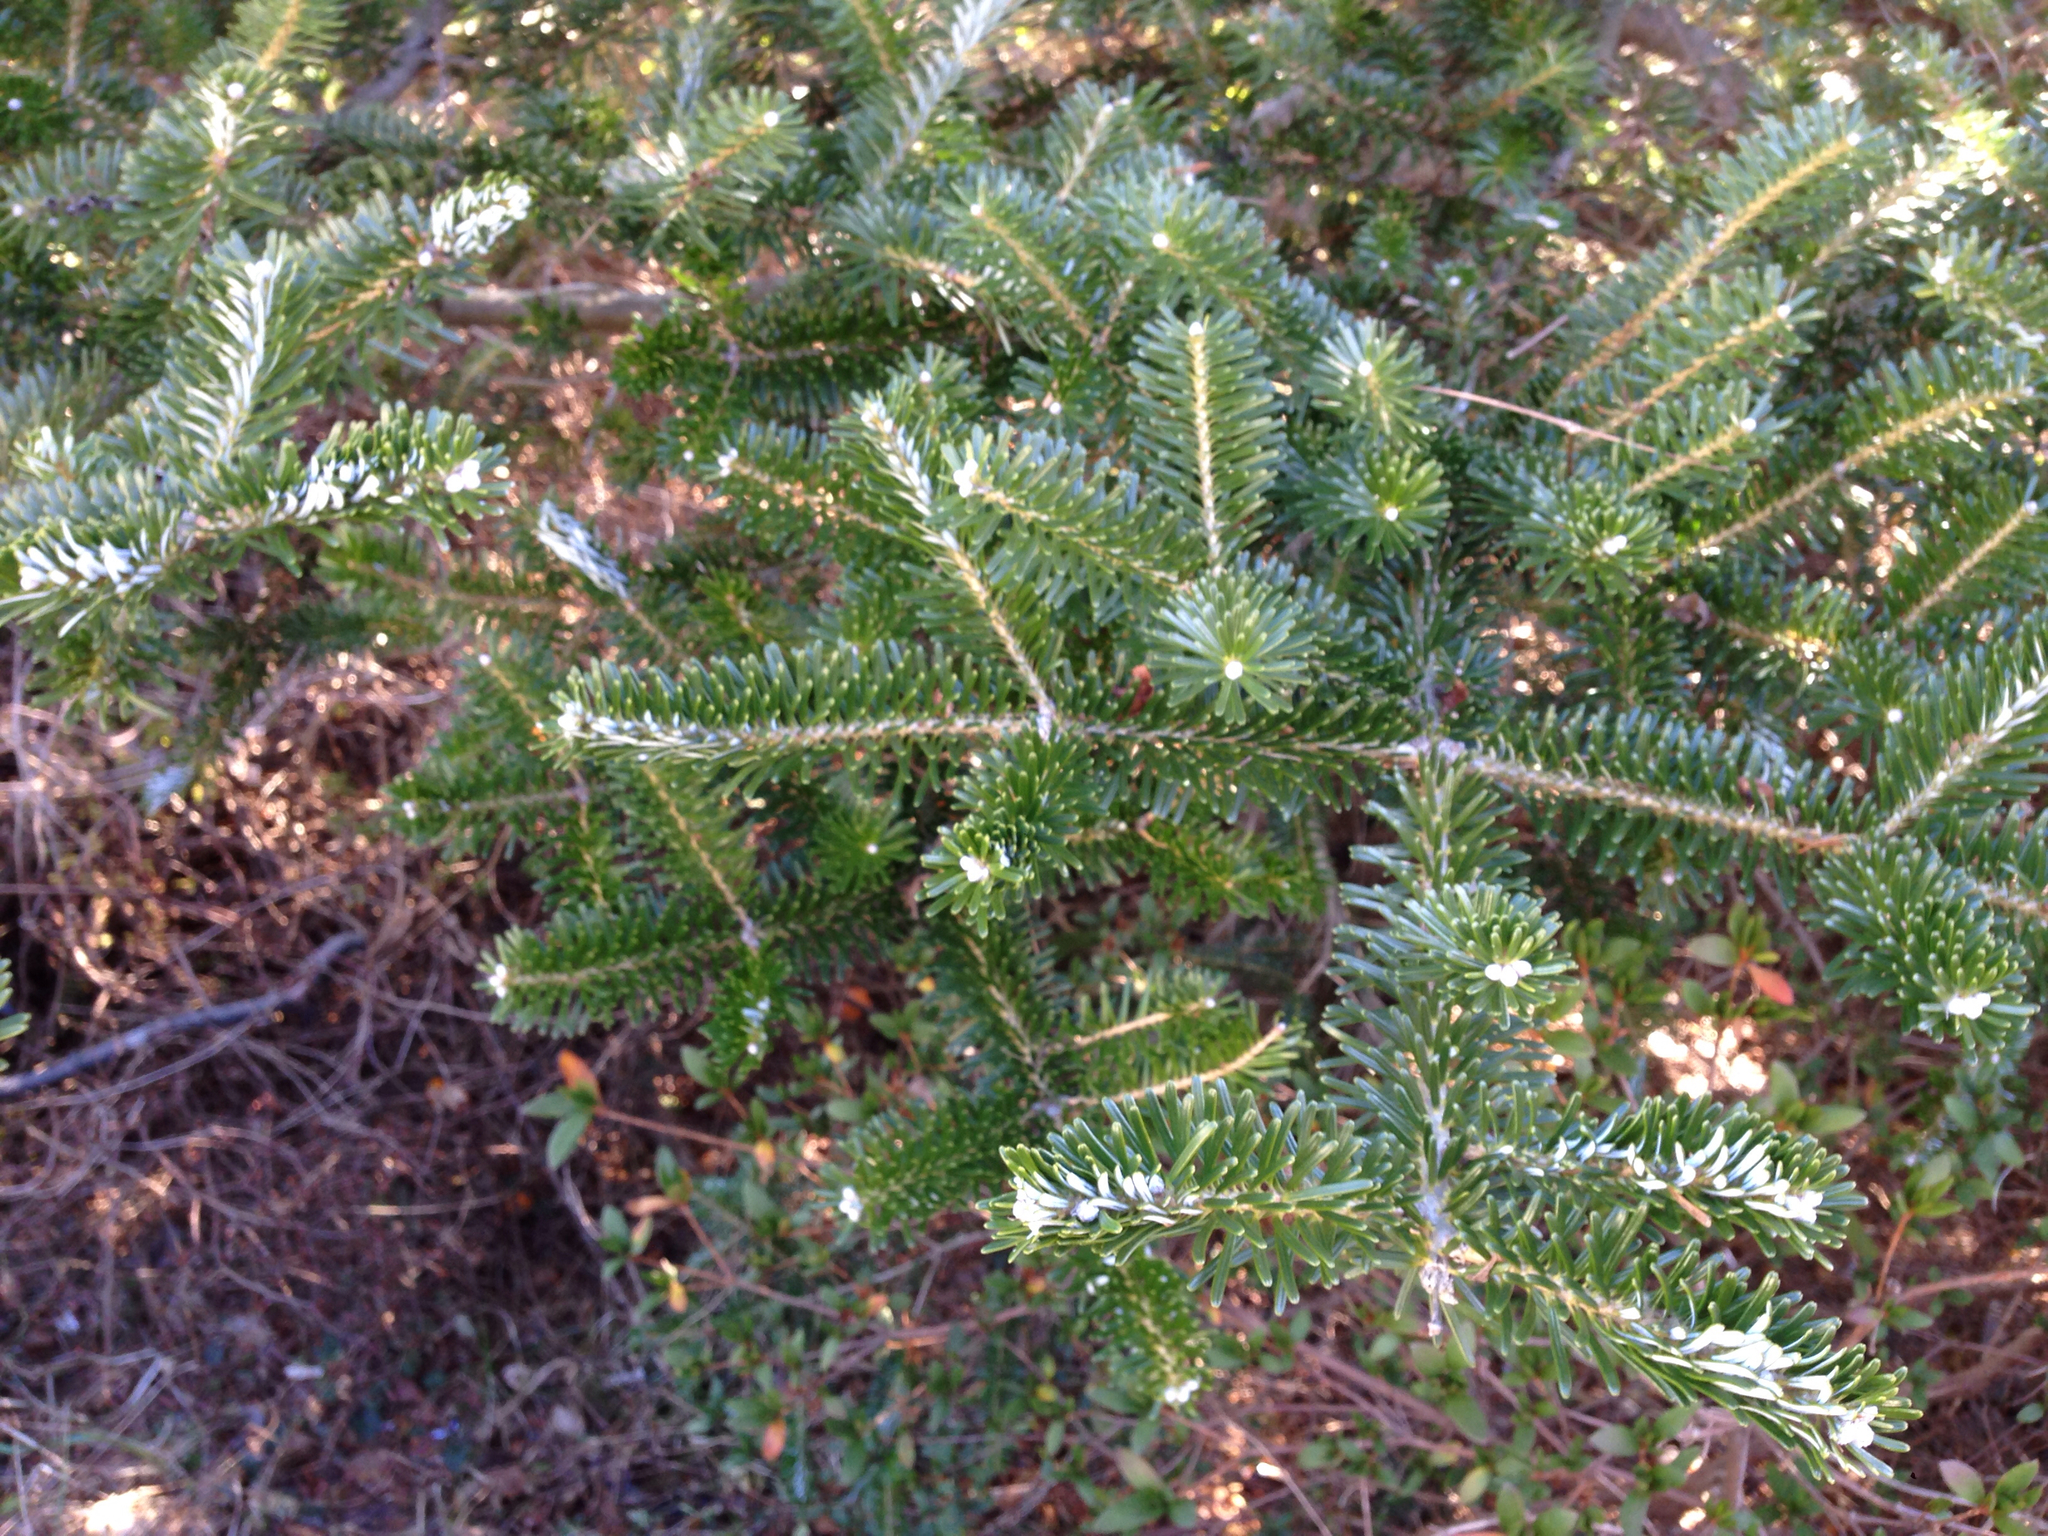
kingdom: Plantae
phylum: Tracheophyta
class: Pinopsida
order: Pinales
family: Pinaceae
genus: Abies
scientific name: Abies koreana
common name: Korean fir
